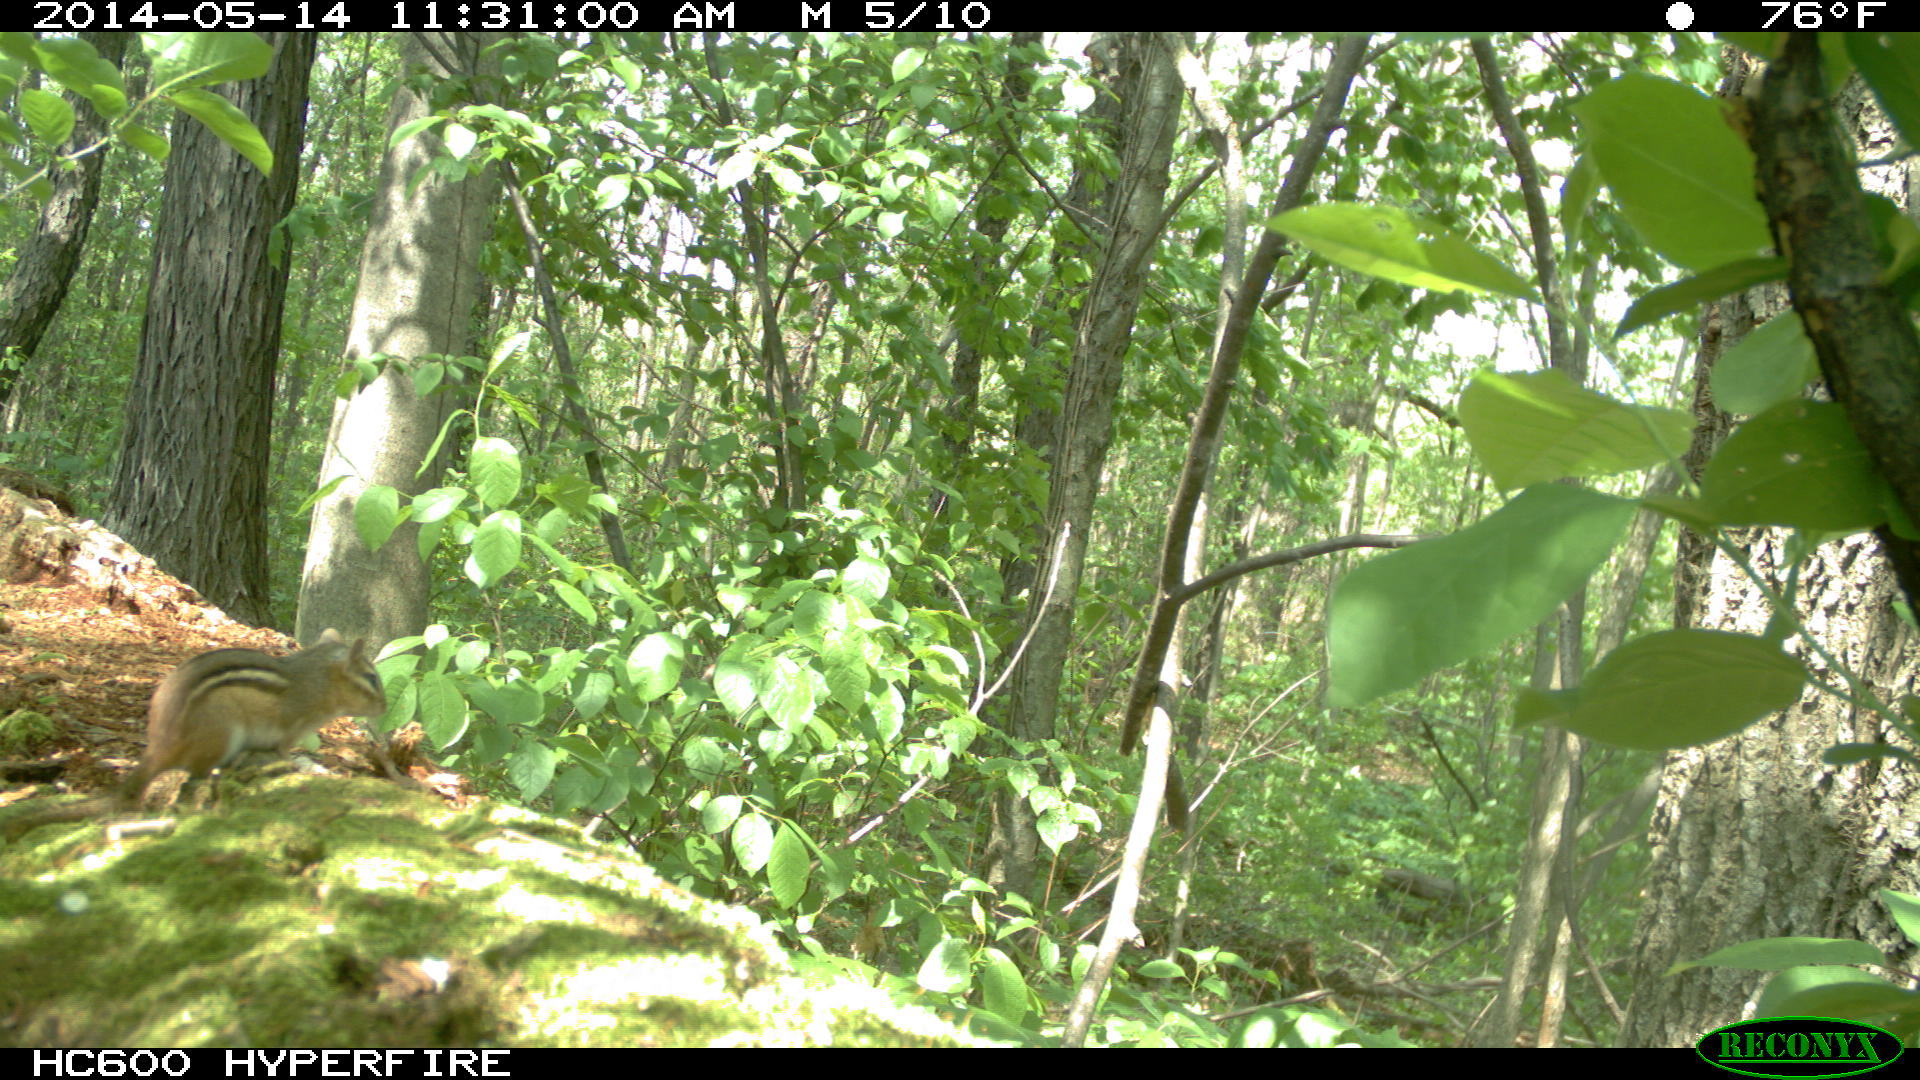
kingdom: Animalia
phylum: Chordata
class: Mammalia
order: Rodentia
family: Sciuridae
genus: Tamias
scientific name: Tamias striatus
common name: Eastern chipmunk
